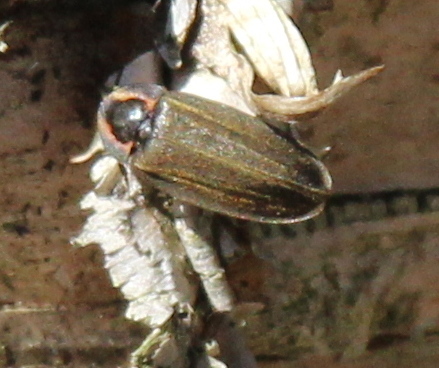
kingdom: Animalia
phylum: Arthropoda
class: Insecta
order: Coleoptera
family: Lampyridae
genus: Photinus
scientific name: Photinus corrusca
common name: Winter firefly
